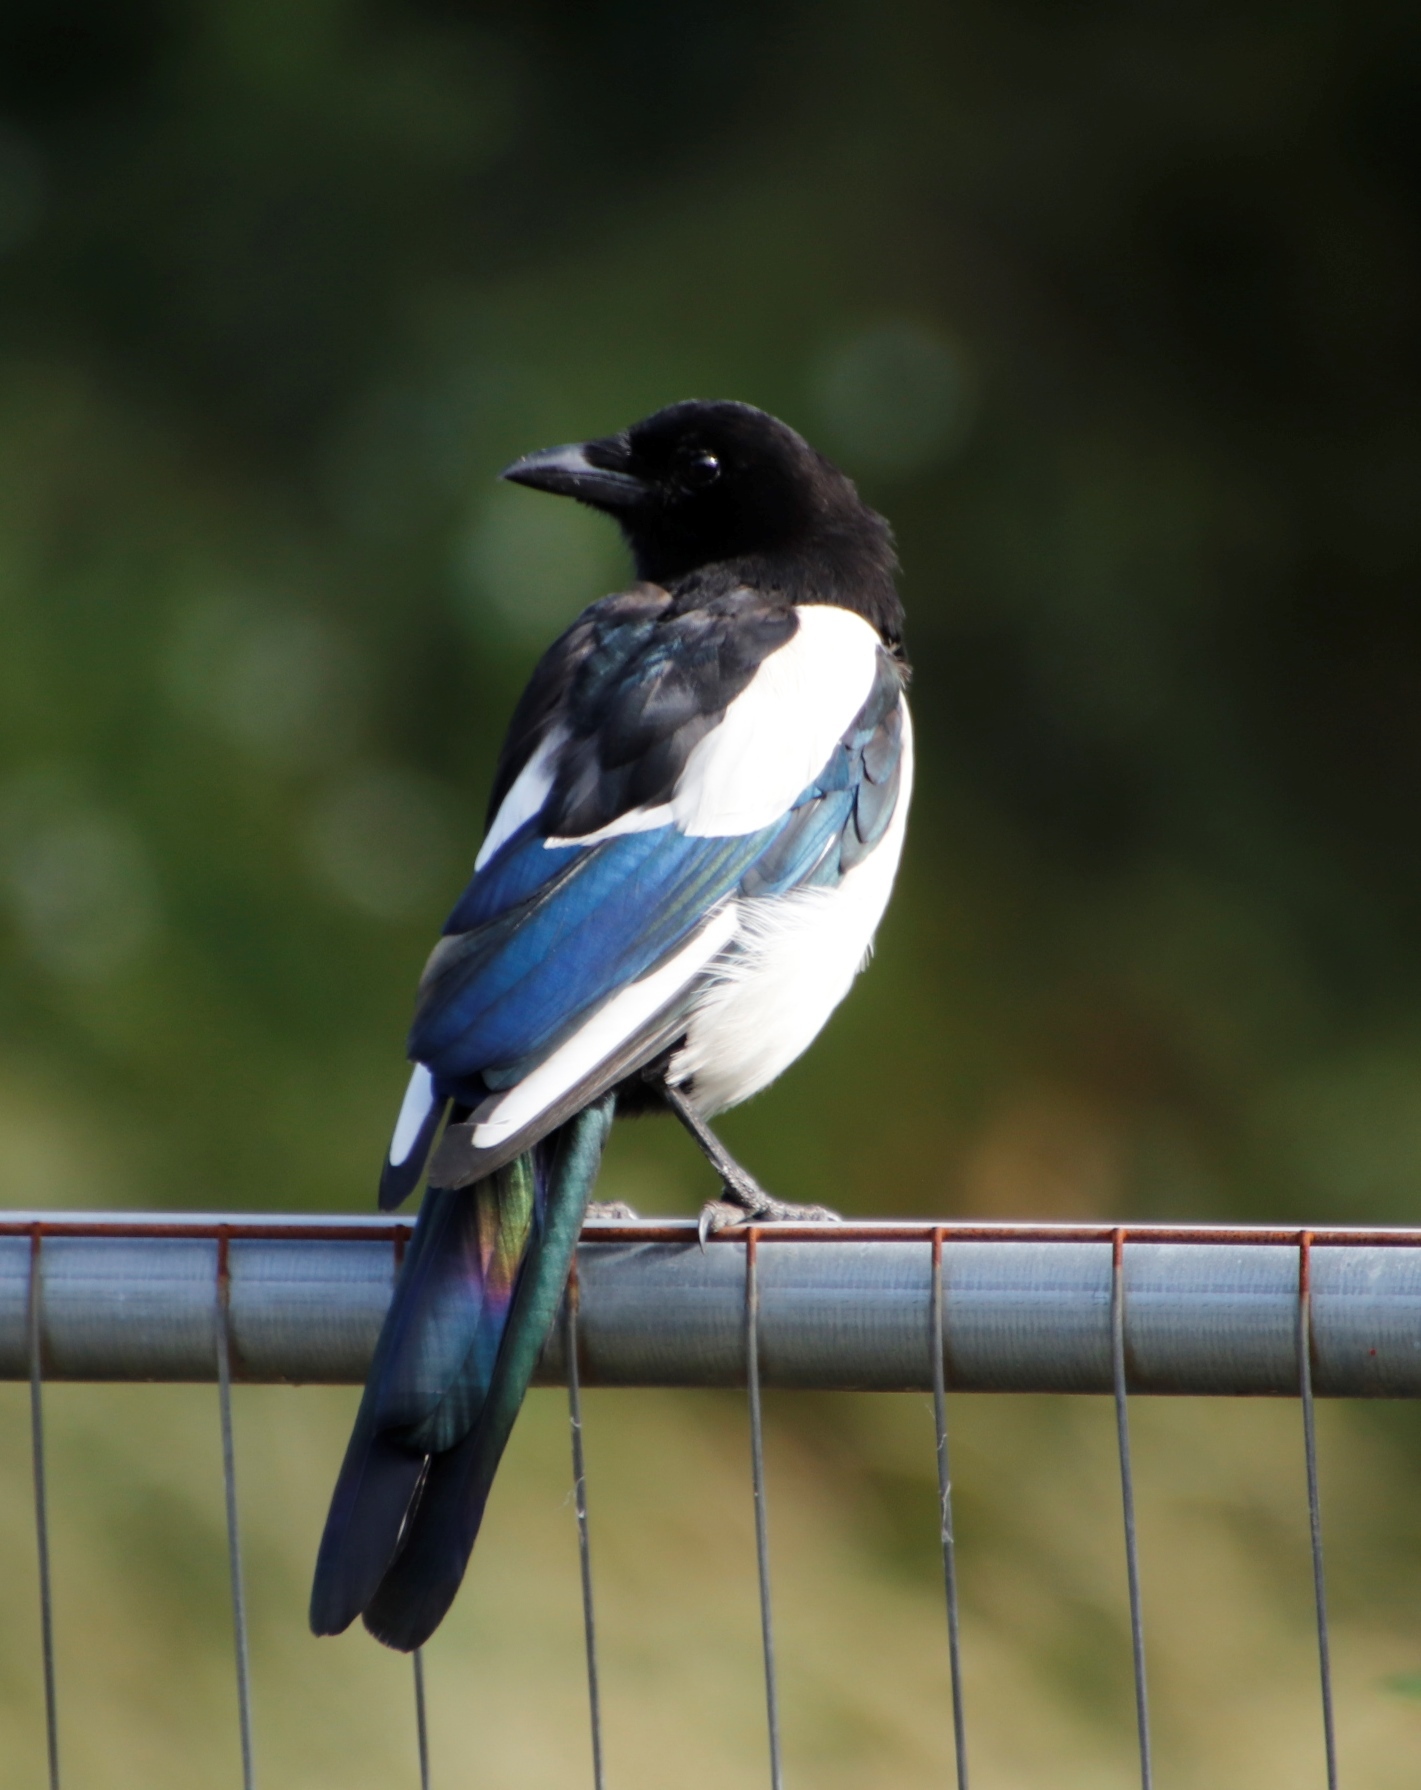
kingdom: Animalia
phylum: Chordata
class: Aves
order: Passeriformes
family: Corvidae
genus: Pica
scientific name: Pica pica
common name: Eurasian magpie
